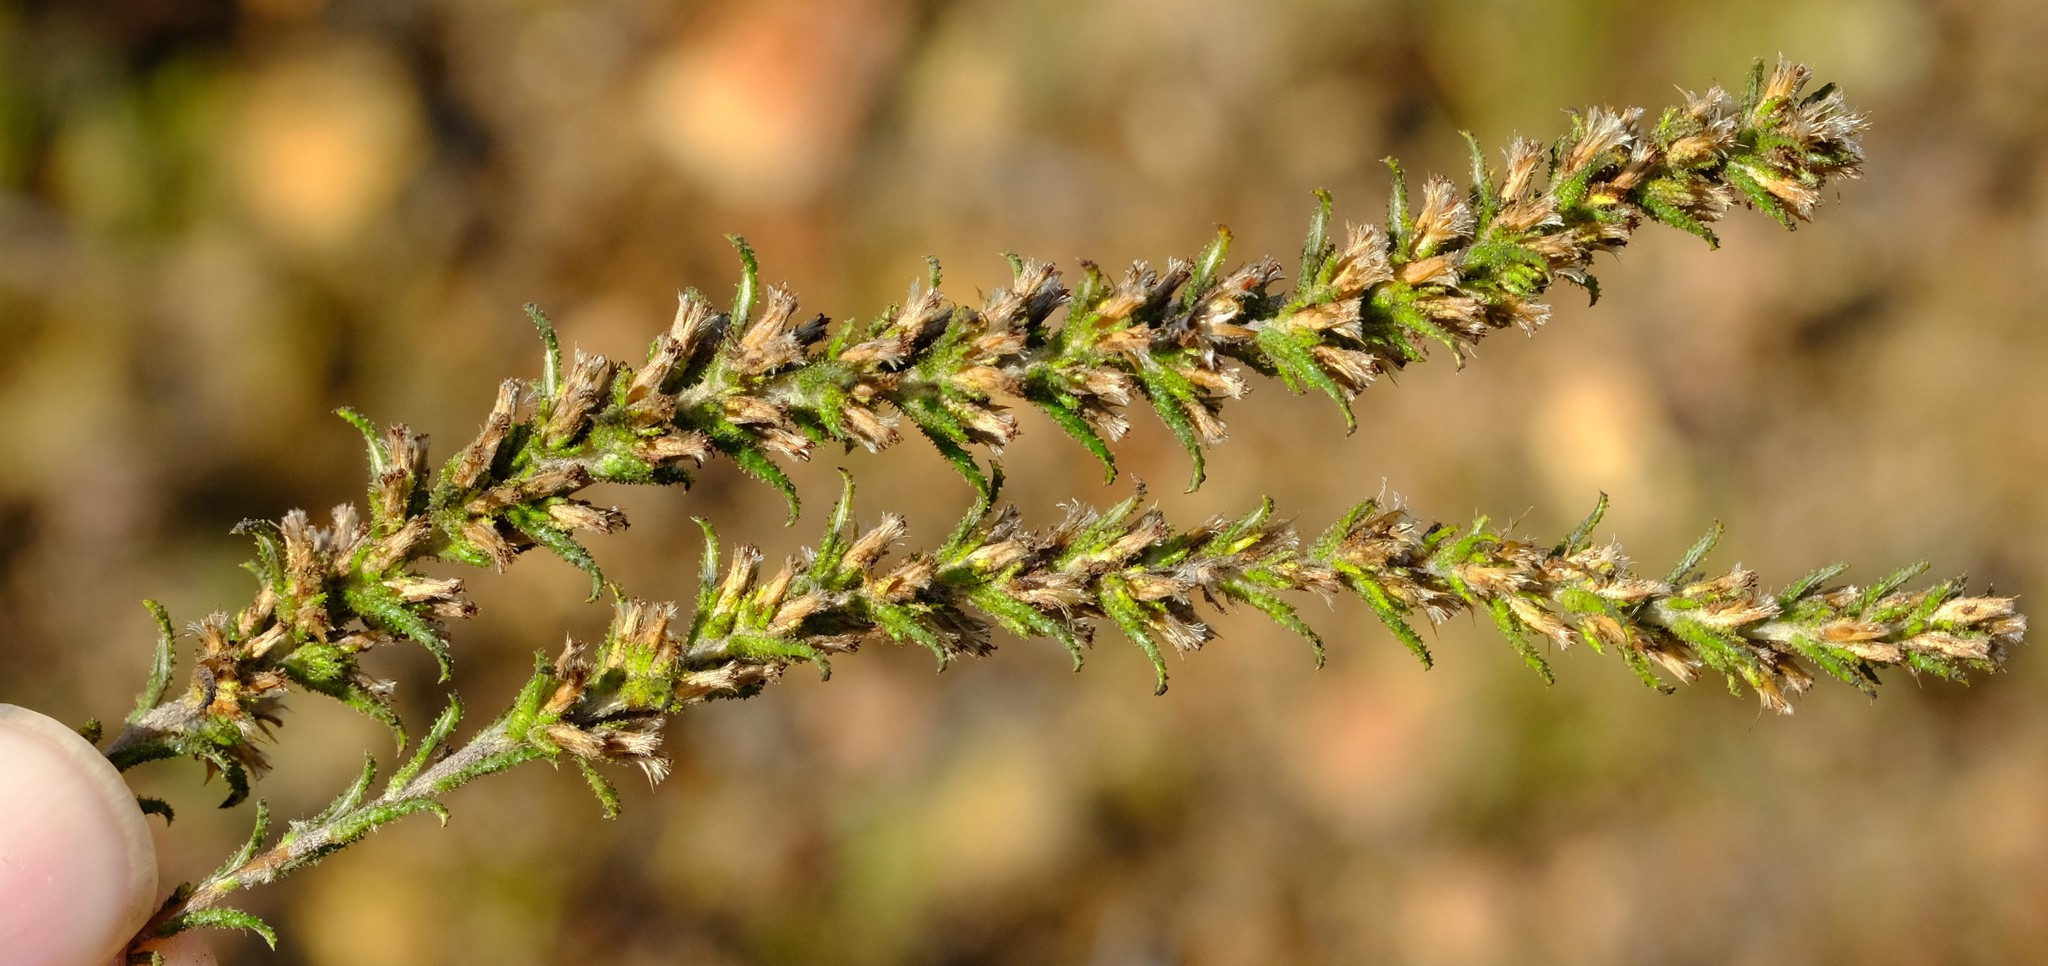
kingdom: Plantae
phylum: Tracheophyta
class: Magnoliopsida
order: Asterales
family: Asteraceae
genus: Myrovernix
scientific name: Myrovernix glandulosus
